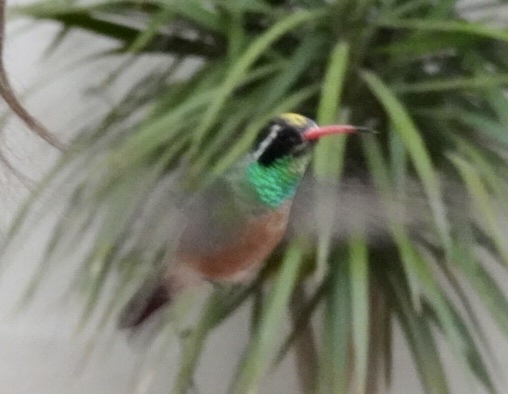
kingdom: Animalia
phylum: Chordata
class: Aves
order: Apodiformes
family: Trochilidae
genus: Basilinna
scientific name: Basilinna xantusii
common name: Xantus's hummingbird
